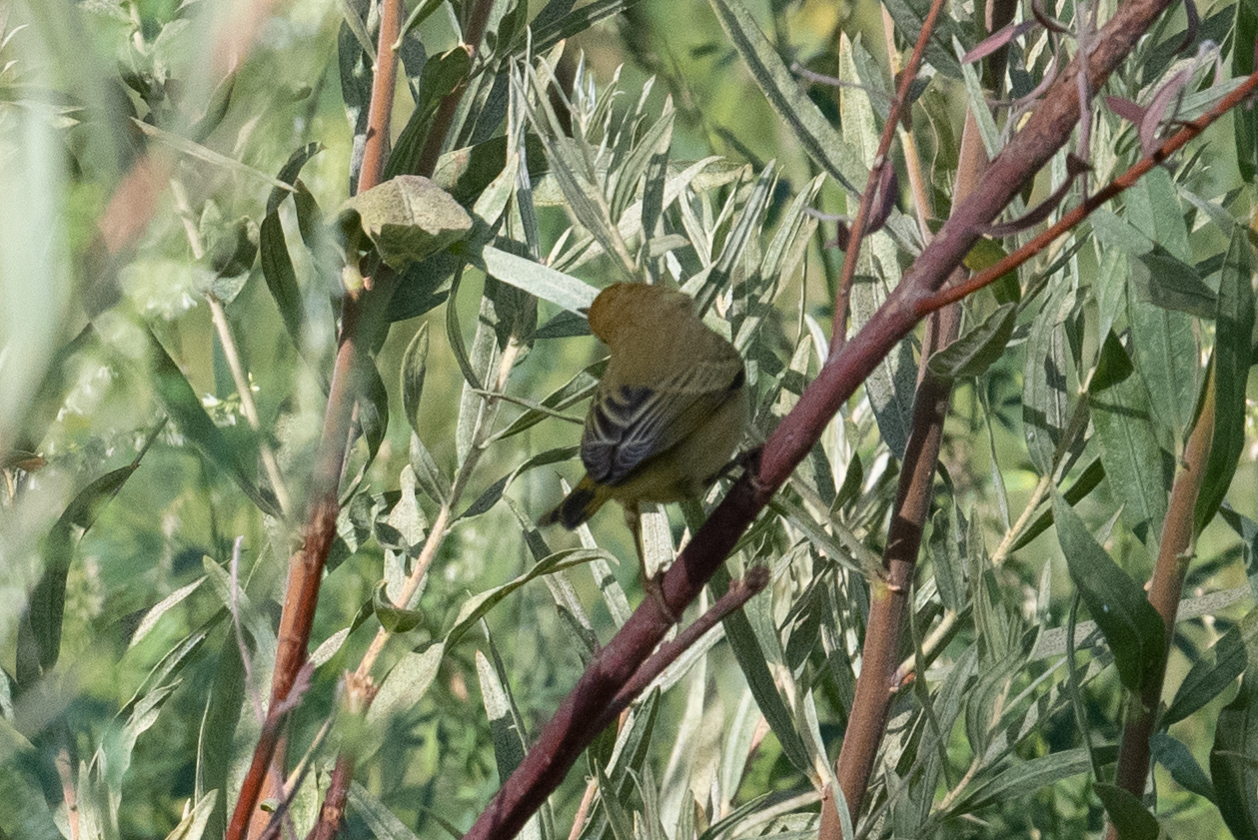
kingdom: Animalia
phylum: Chordata
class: Aves
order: Passeriformes
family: Parulidae
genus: Setophaga
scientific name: Setophaga petechia
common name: Yellow warbler
